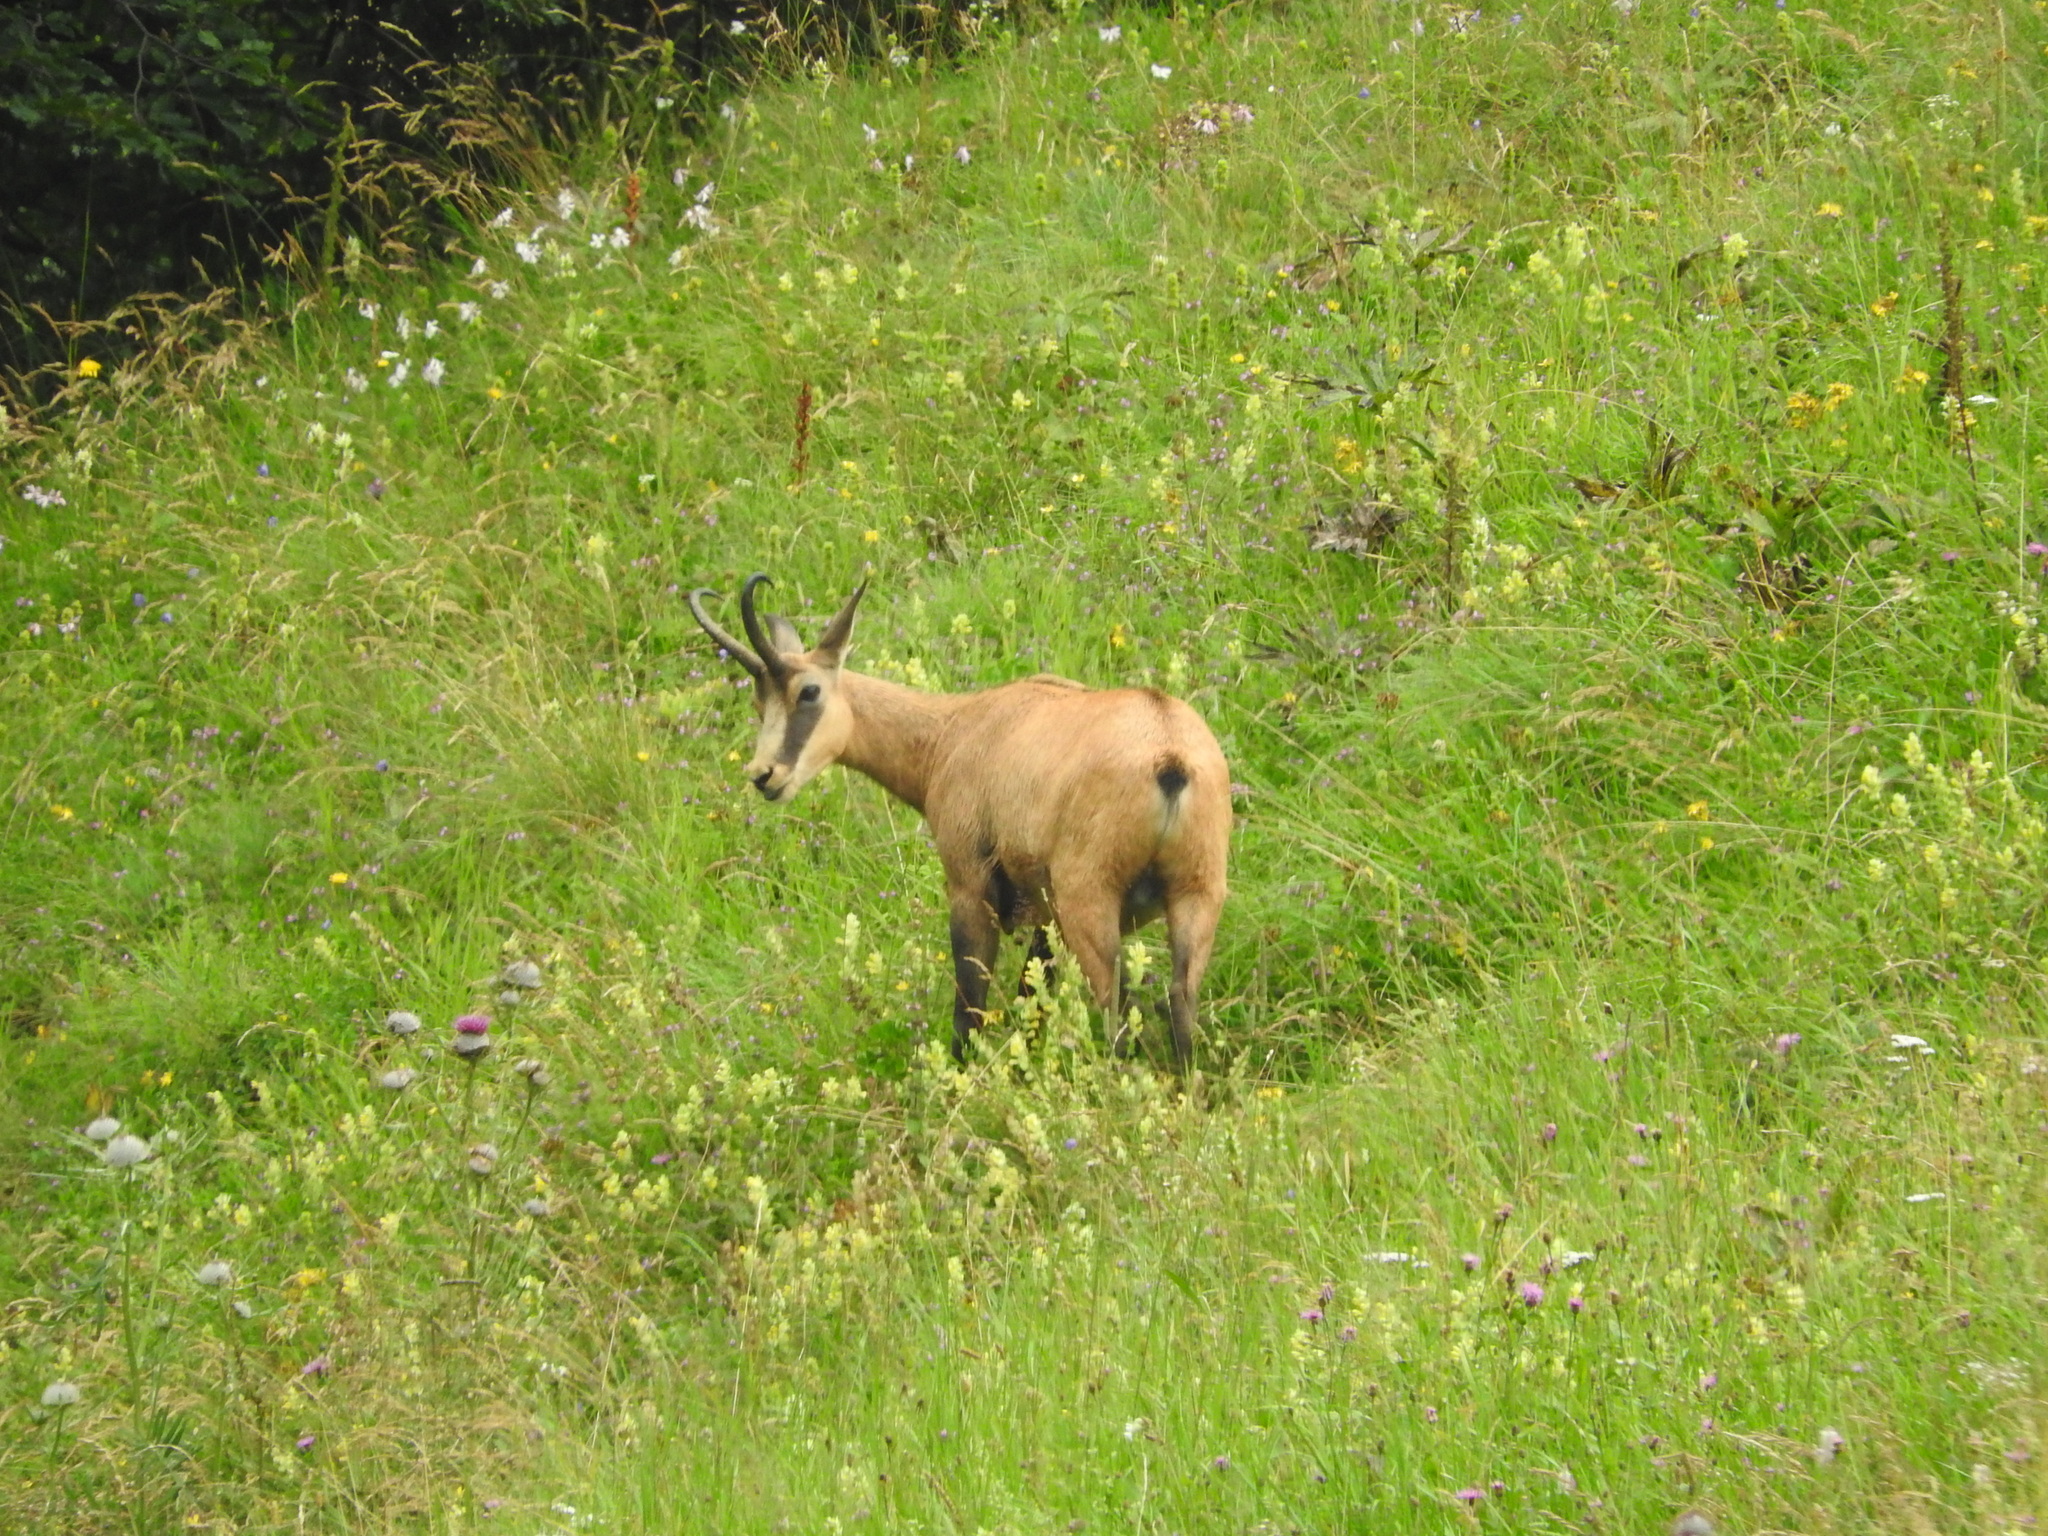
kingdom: Animalia
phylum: Chordata
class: Mammalia
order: Artiodactyla
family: Bovidae
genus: Rupicapra
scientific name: Rupicapra rupicapra
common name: Chamois
